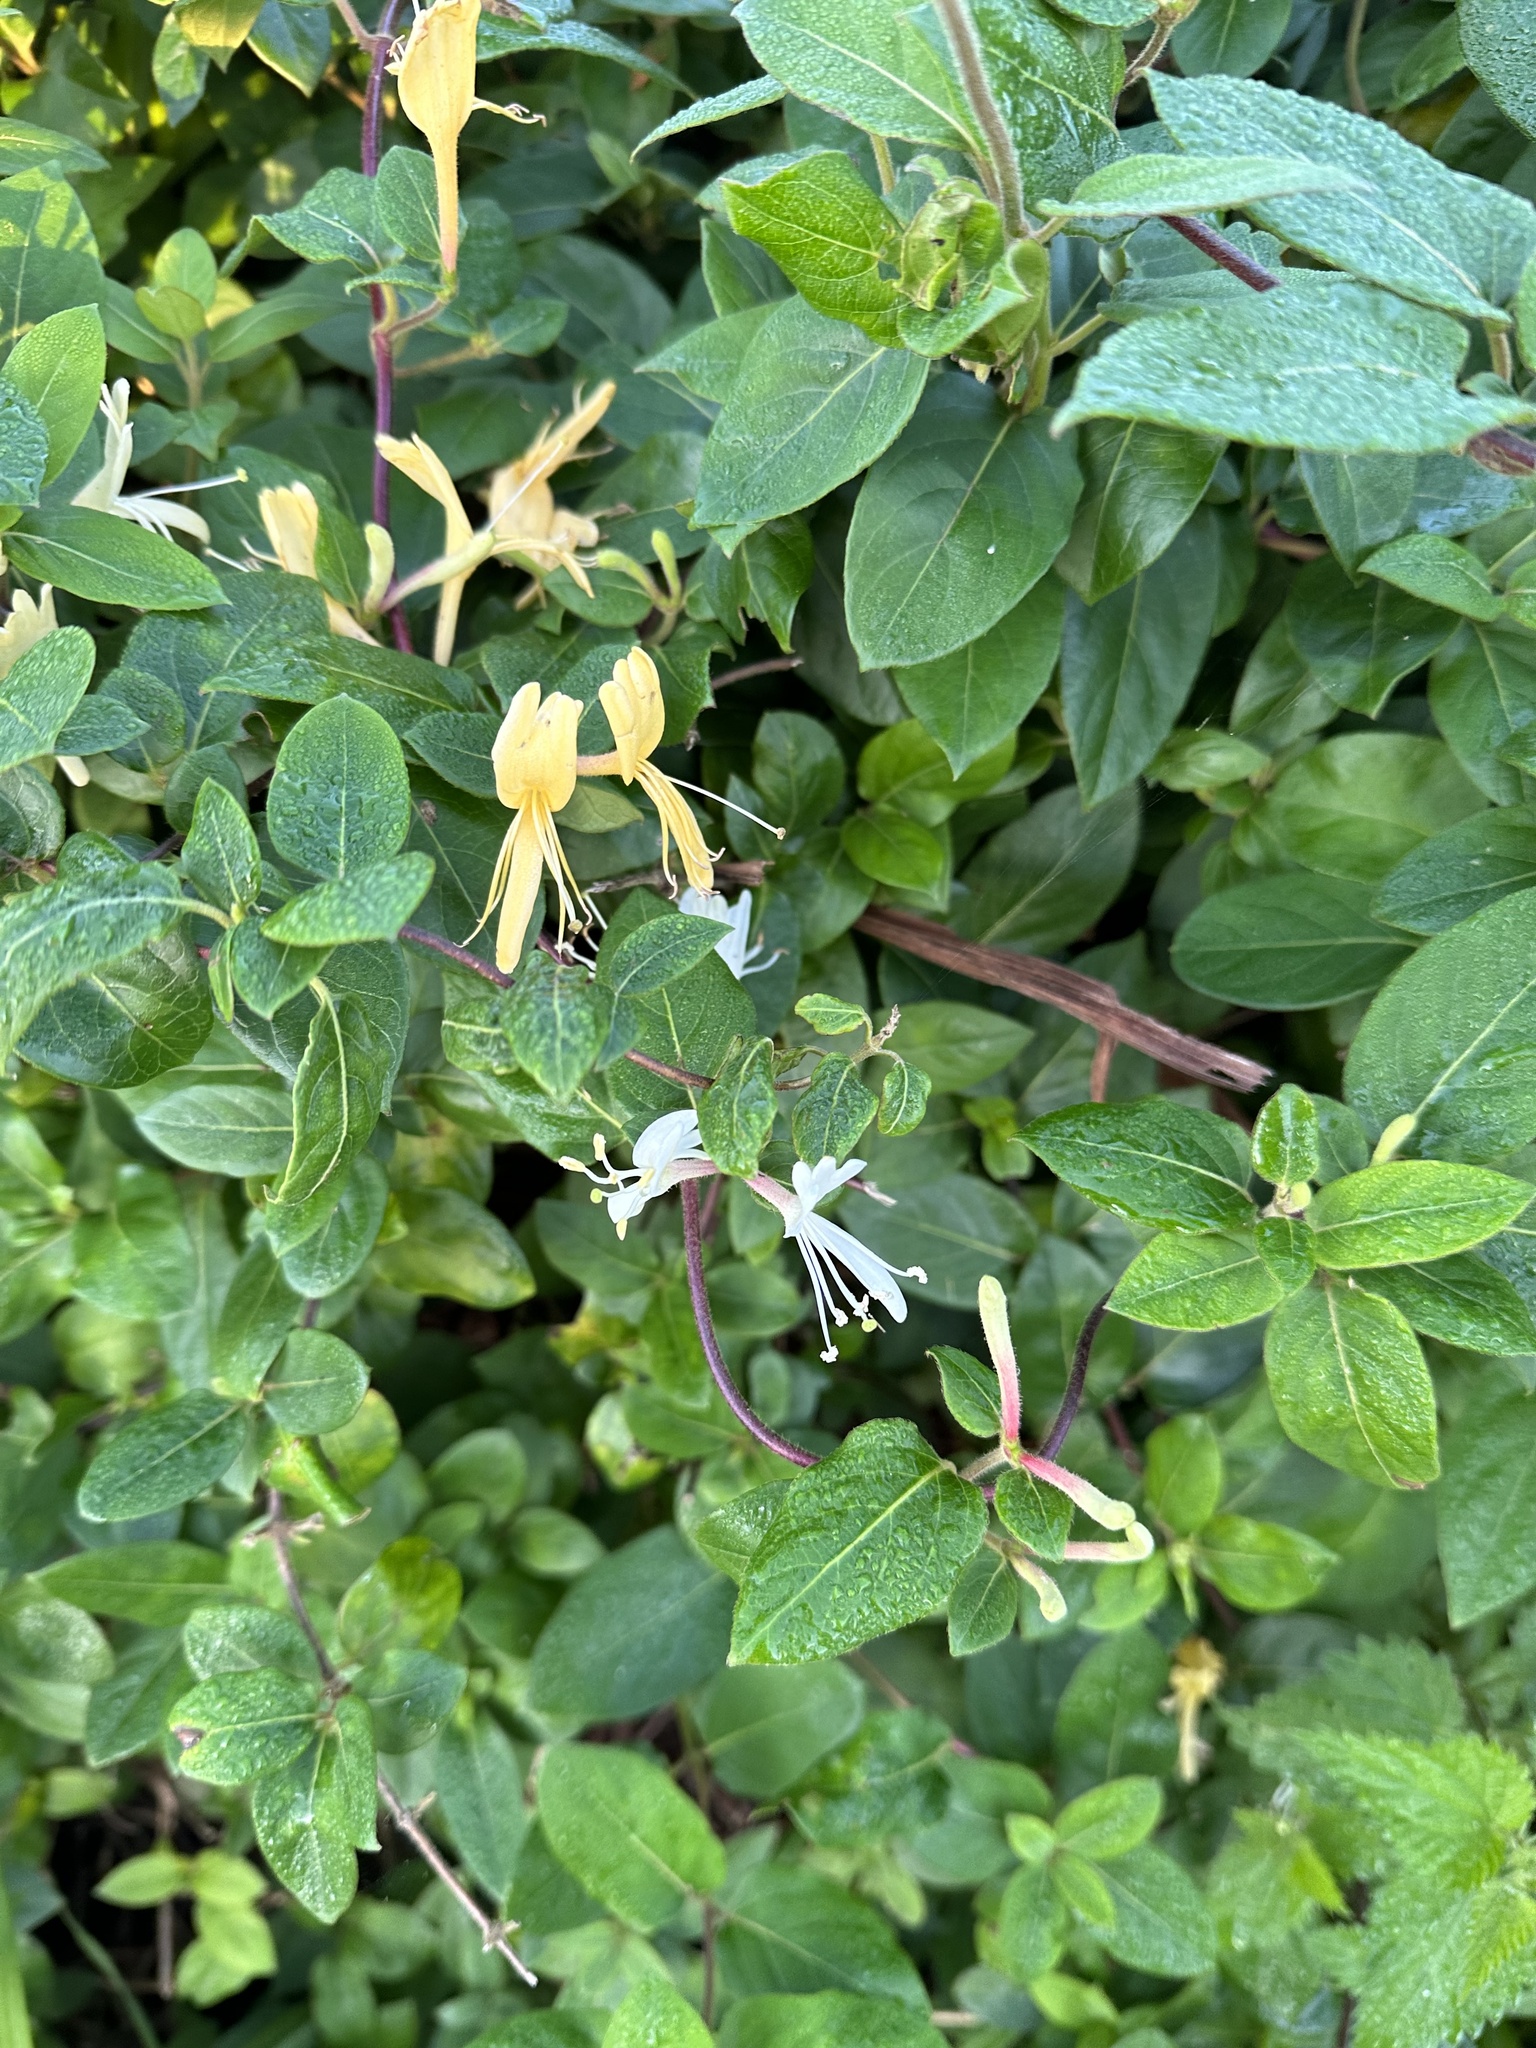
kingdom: Plantae
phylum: Tracheophyta
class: Magnoliopsida
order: Dipsacales
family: Caprifoliaceae
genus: Lonicera
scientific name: Lonicera japonica
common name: Japanese honeysuckle
